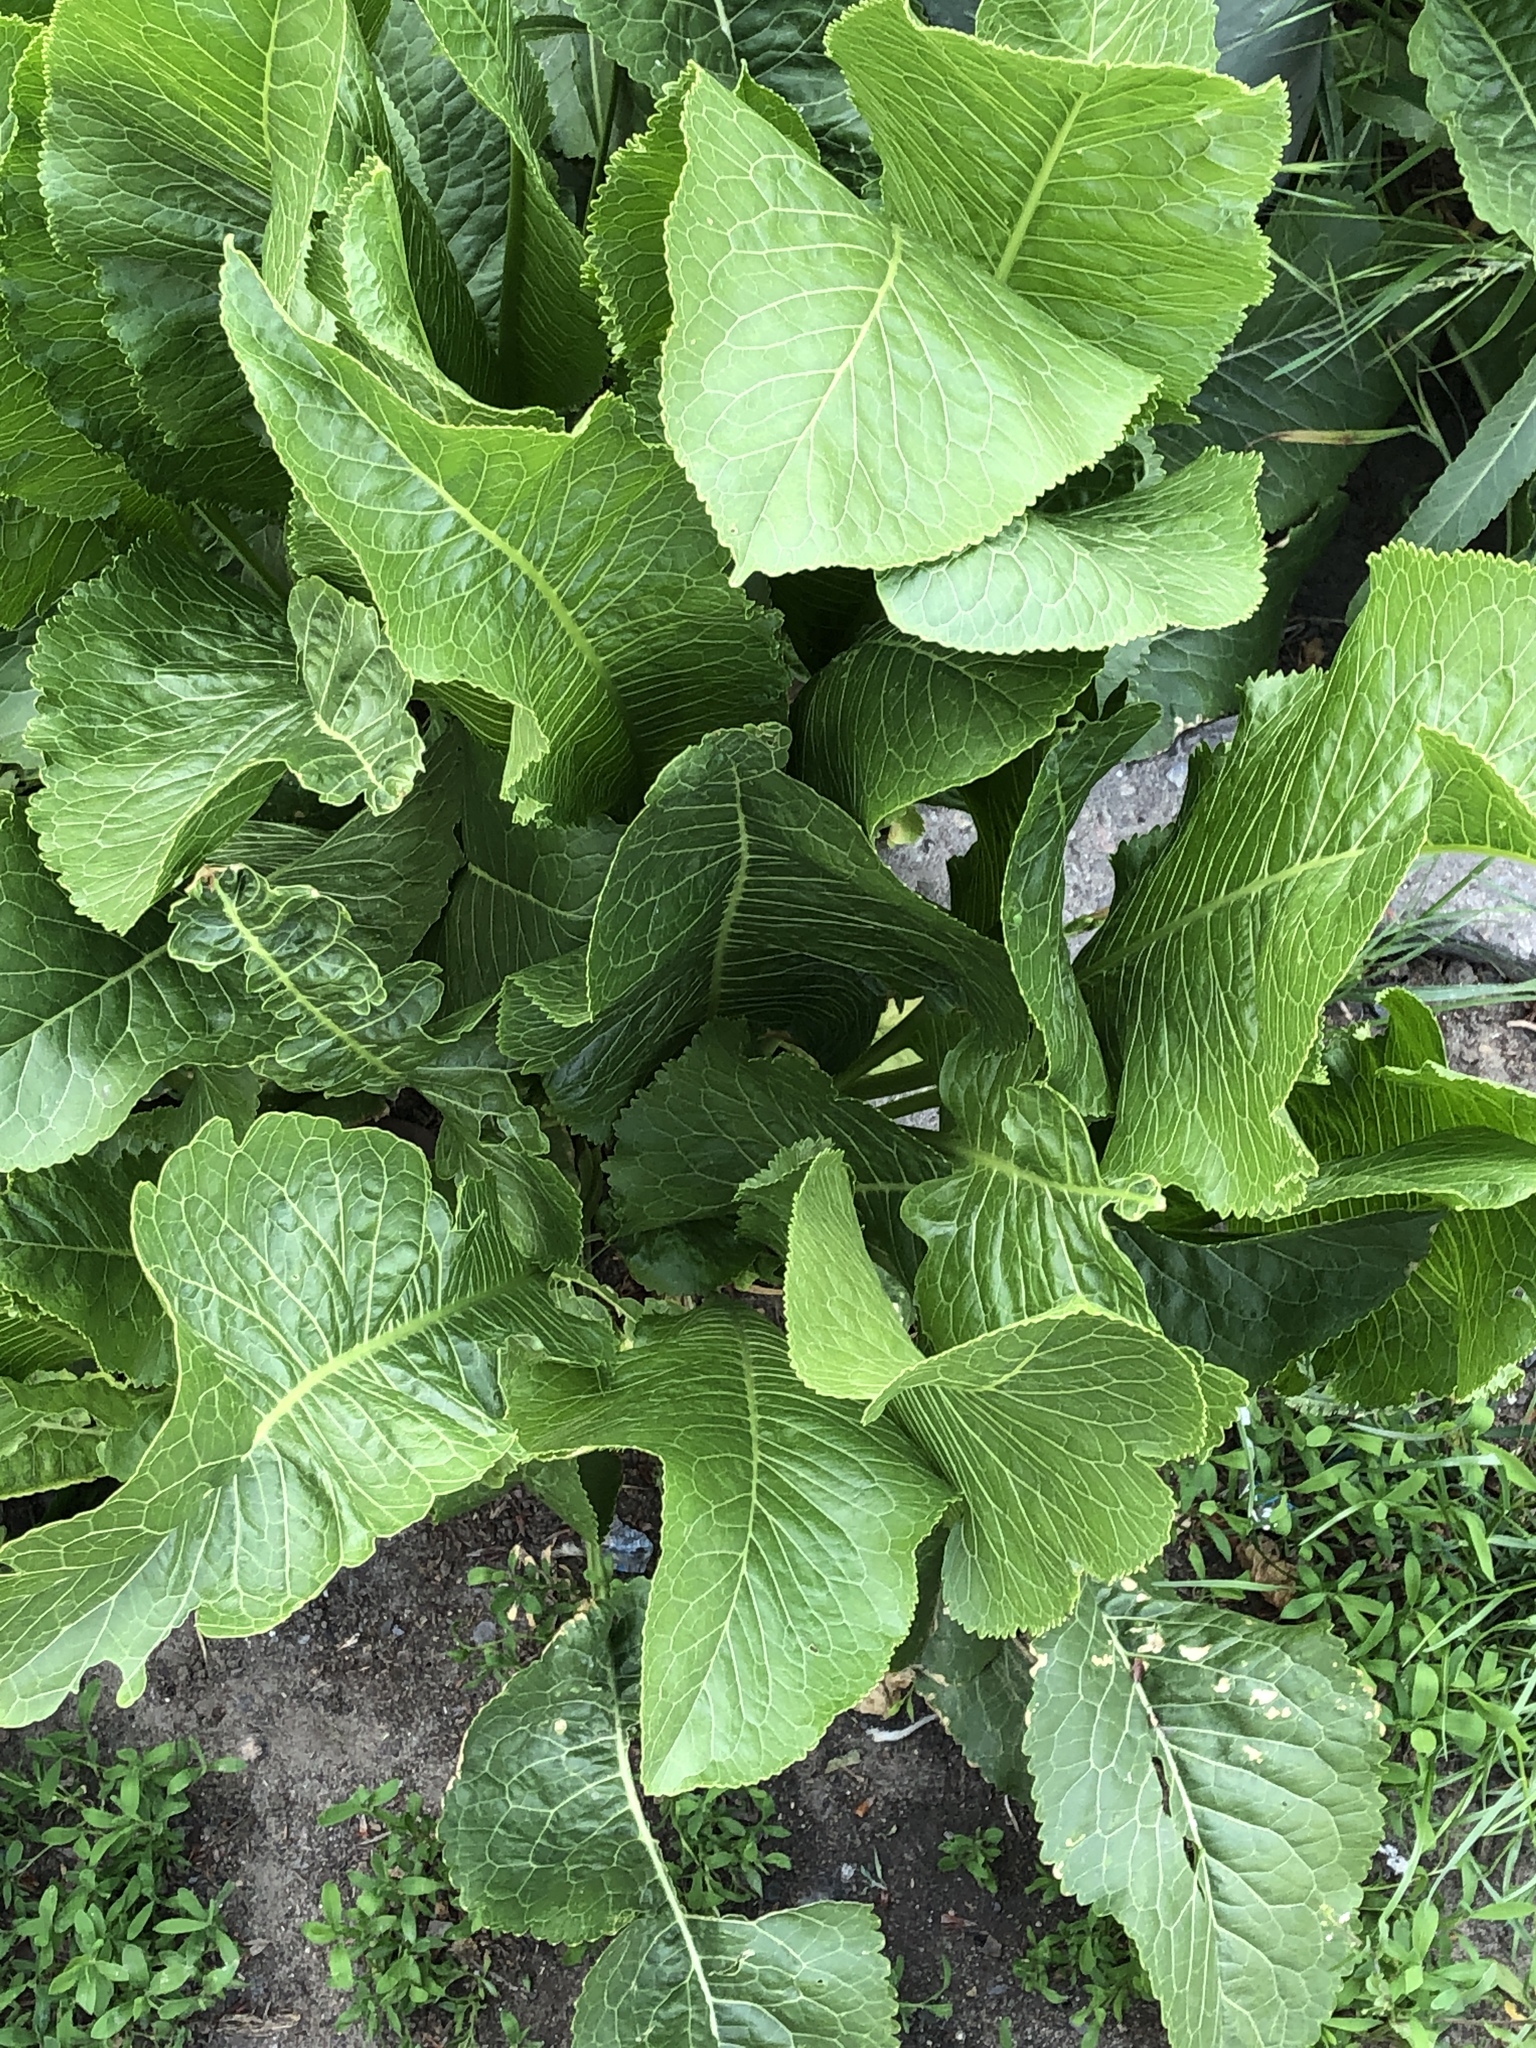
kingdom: Plantae
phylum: Tracheophyta
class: Magnoliopsida
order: Brassicales
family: Brassicaceae
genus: Armoracia
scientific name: Armoracia rusticana
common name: Horseradish
